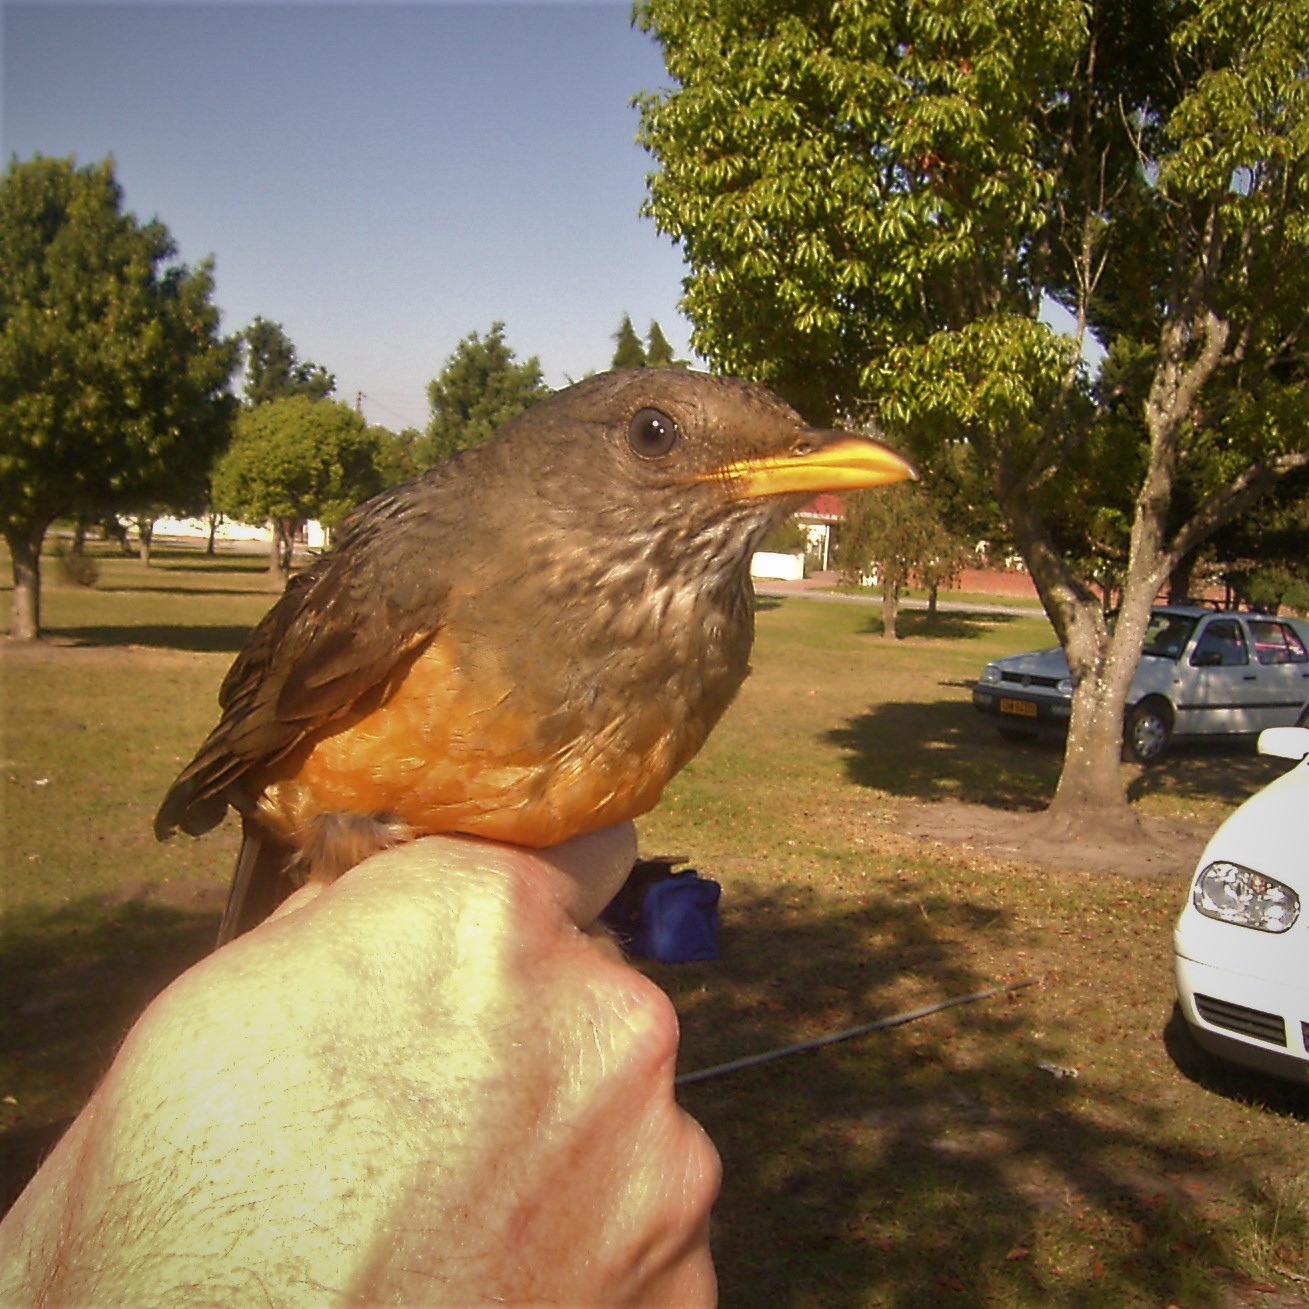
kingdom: Animalia
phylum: Chordata
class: Aves
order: Passeriformes
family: Turdidae
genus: Turdus
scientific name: Turdus olivaceus
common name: Olive thrush
